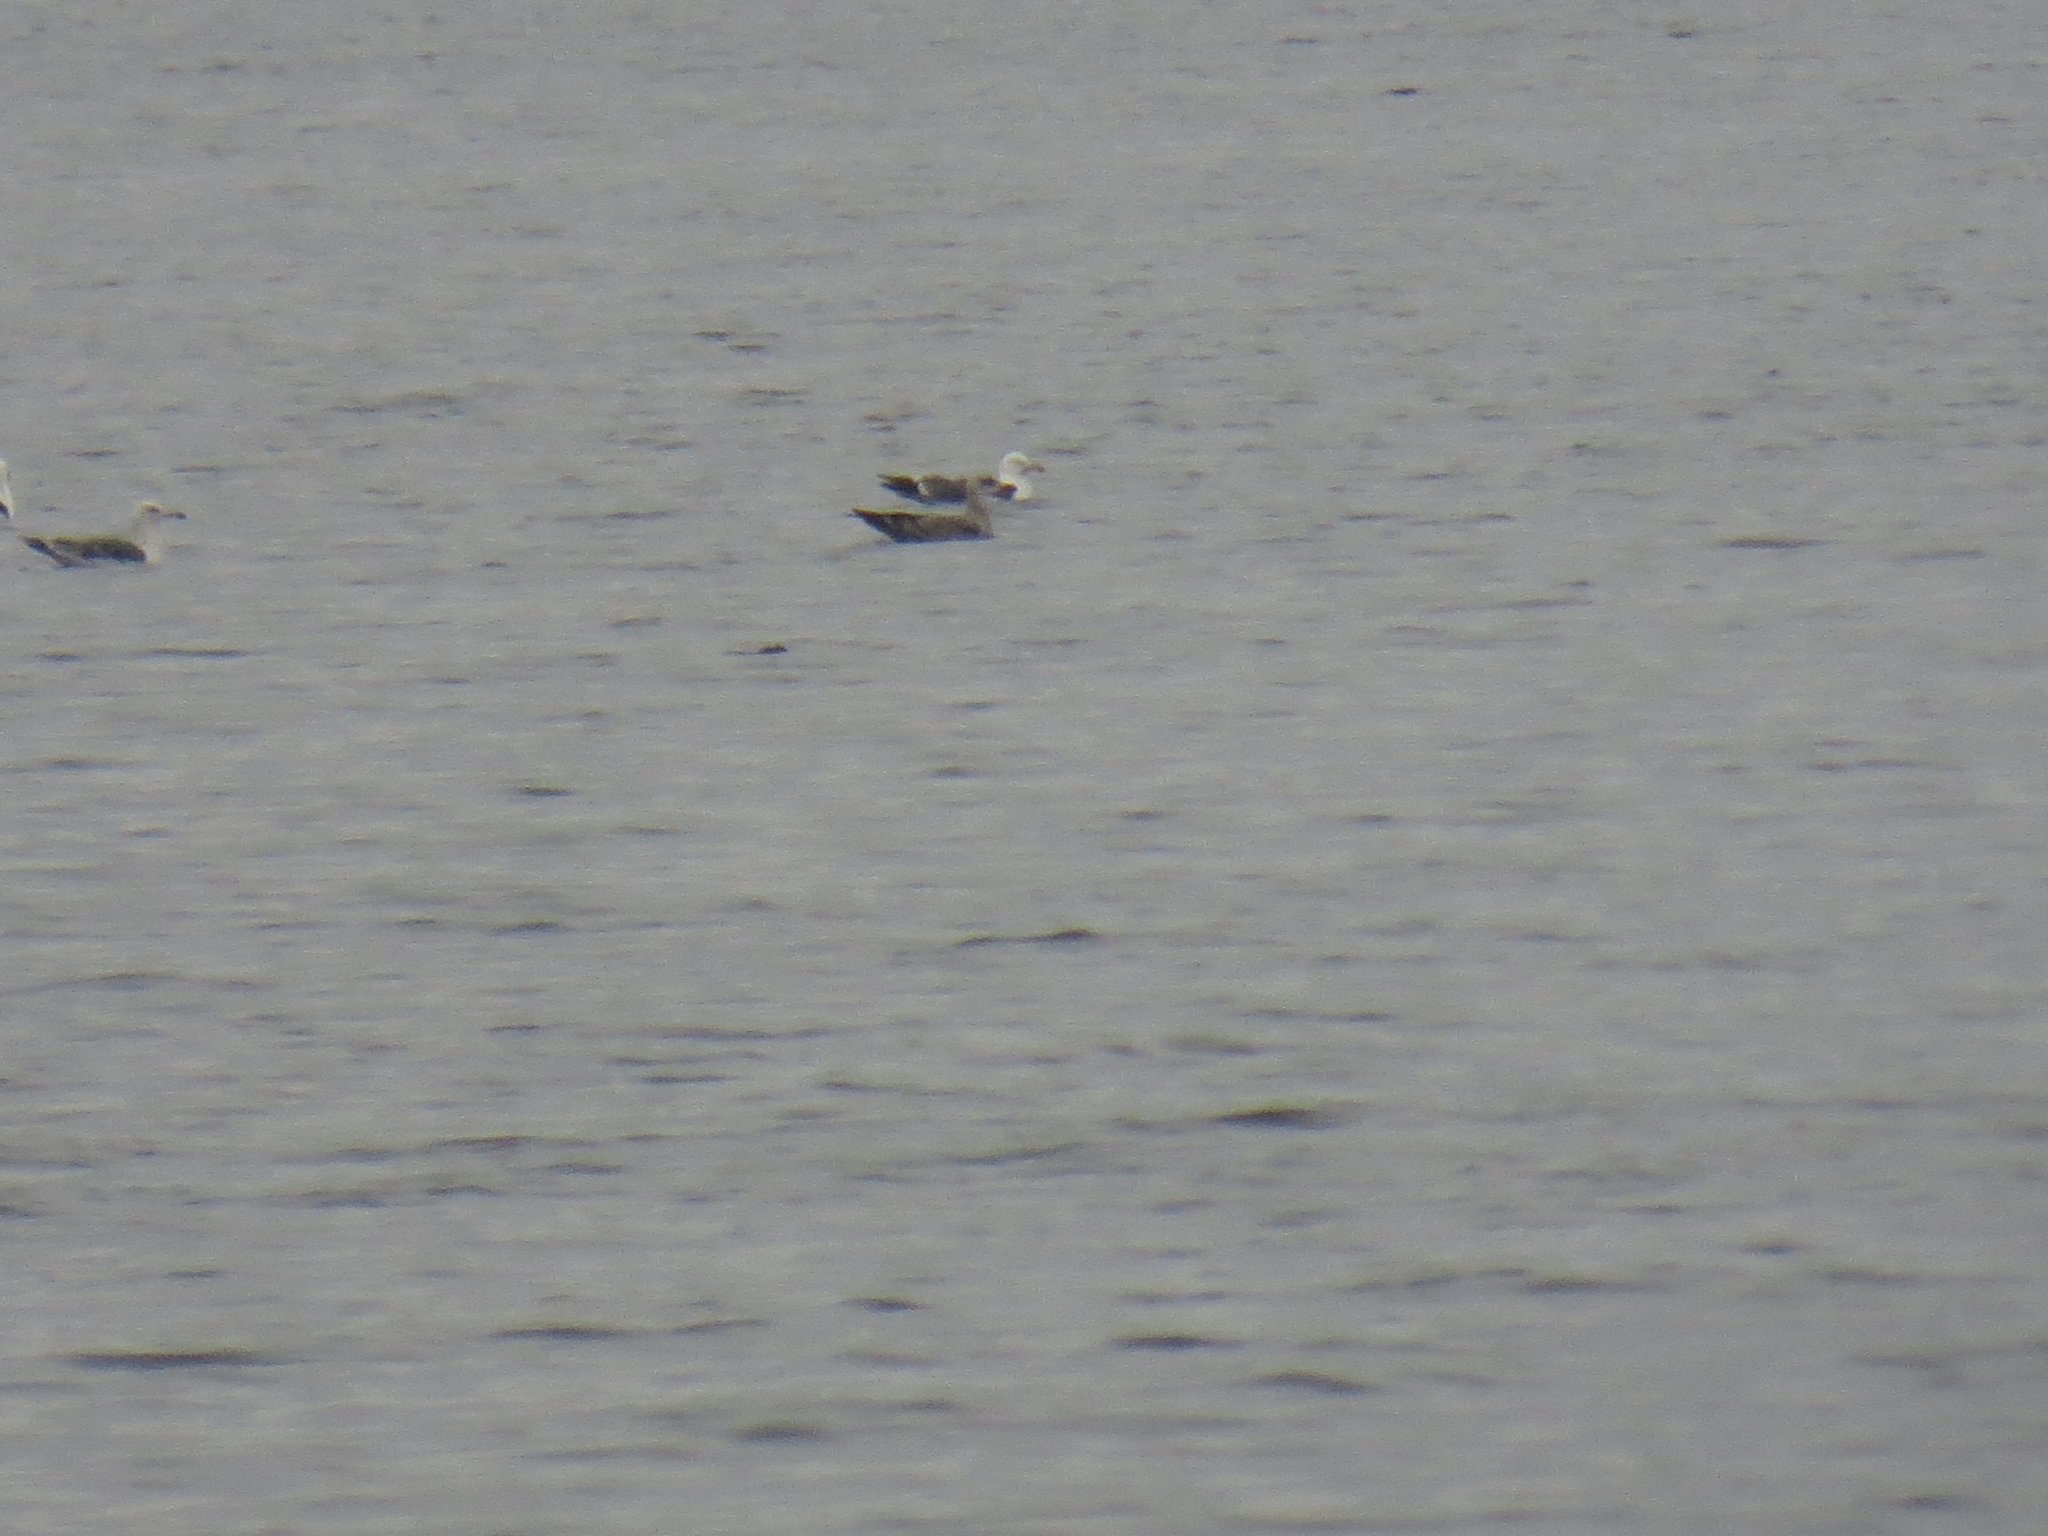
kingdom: Animalia
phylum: Chordata
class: Aves
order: Charadriiformes
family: Laridae
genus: Larus
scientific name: Larus fuscus
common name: Lesser black-backed gull
